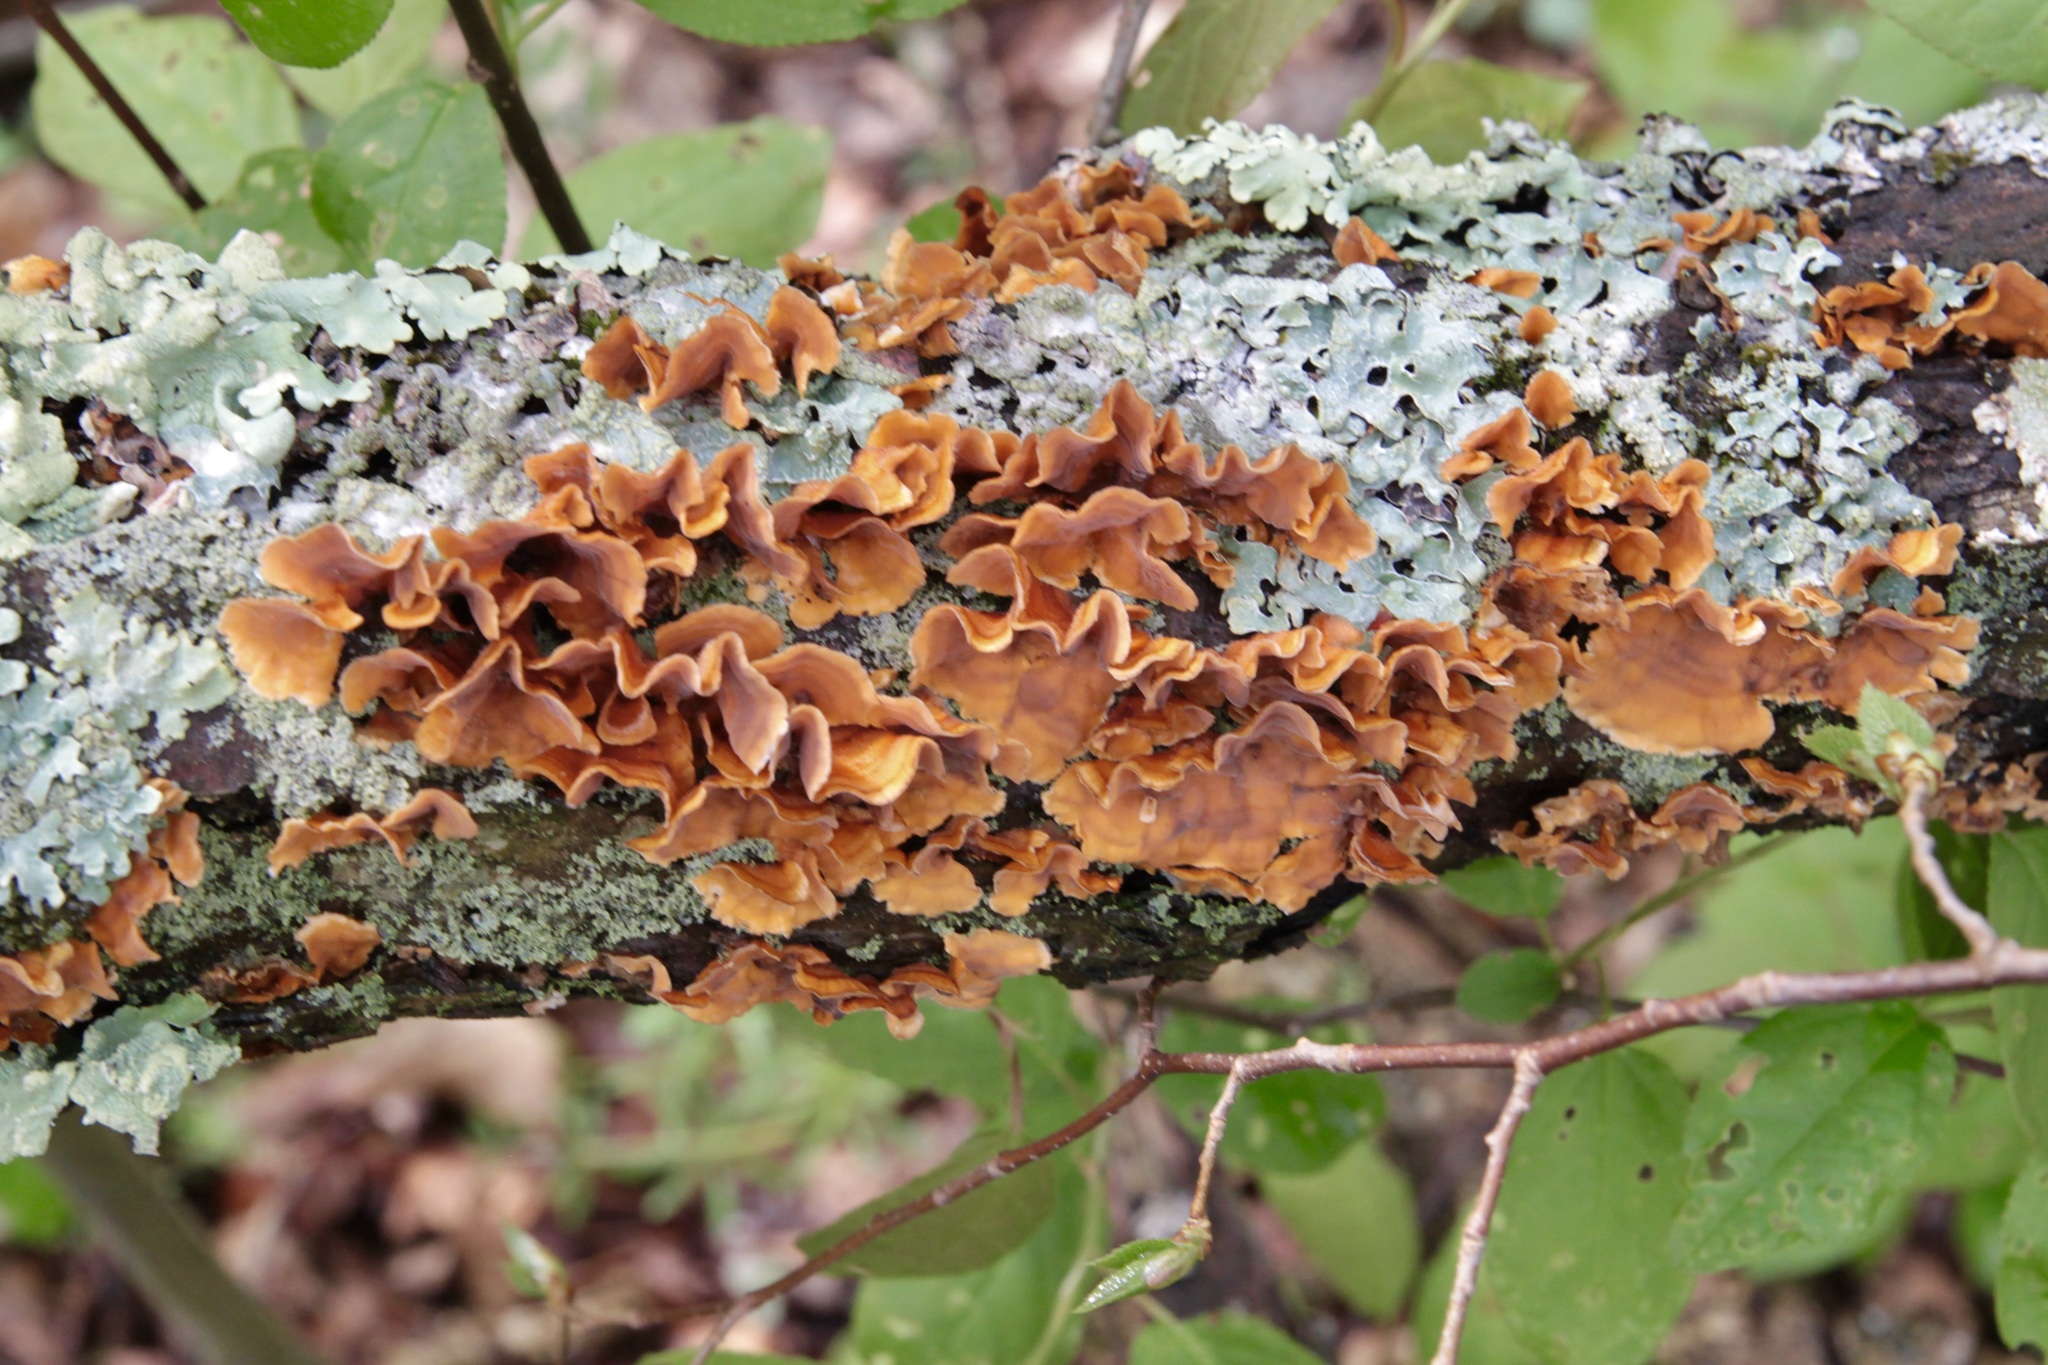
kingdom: Fungi
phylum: Basidiomycota
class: Agaricomycetes
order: Russulales
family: Stereaceae
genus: Stereum
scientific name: Stereum complicatum
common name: Crowded parchment
